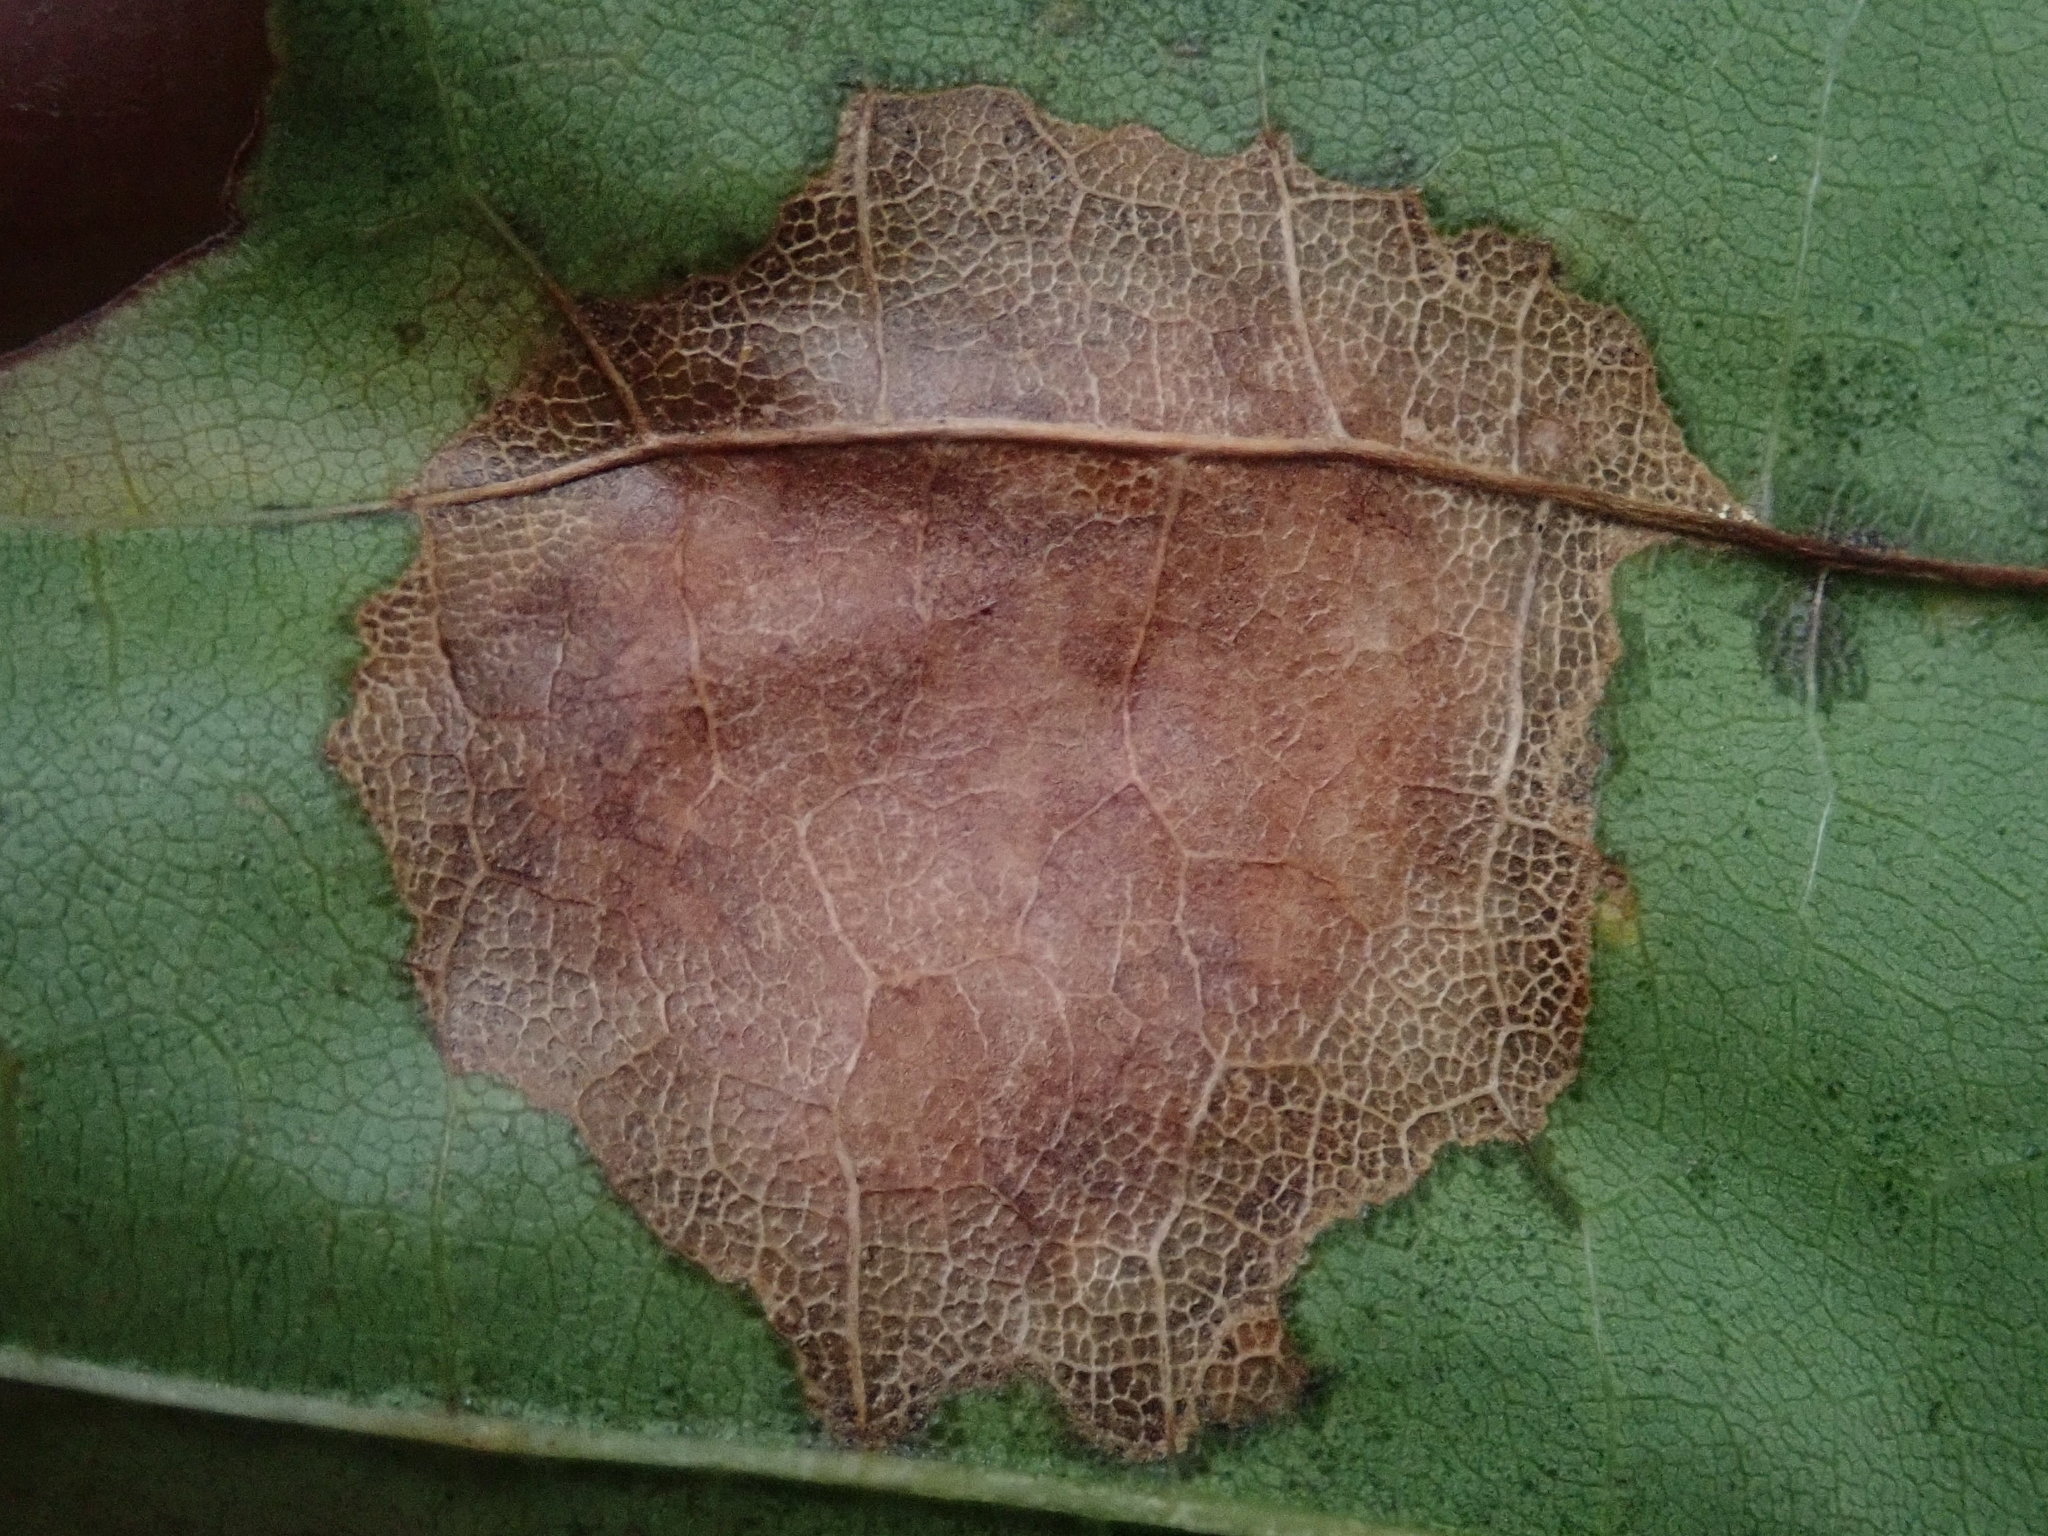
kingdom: Fungi
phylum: Ascomycota
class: Leotiomycetes
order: Rhytismatales
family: Rhytismataceae
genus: Rhytisma
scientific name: Rhytisma acerinum
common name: European tar spot
